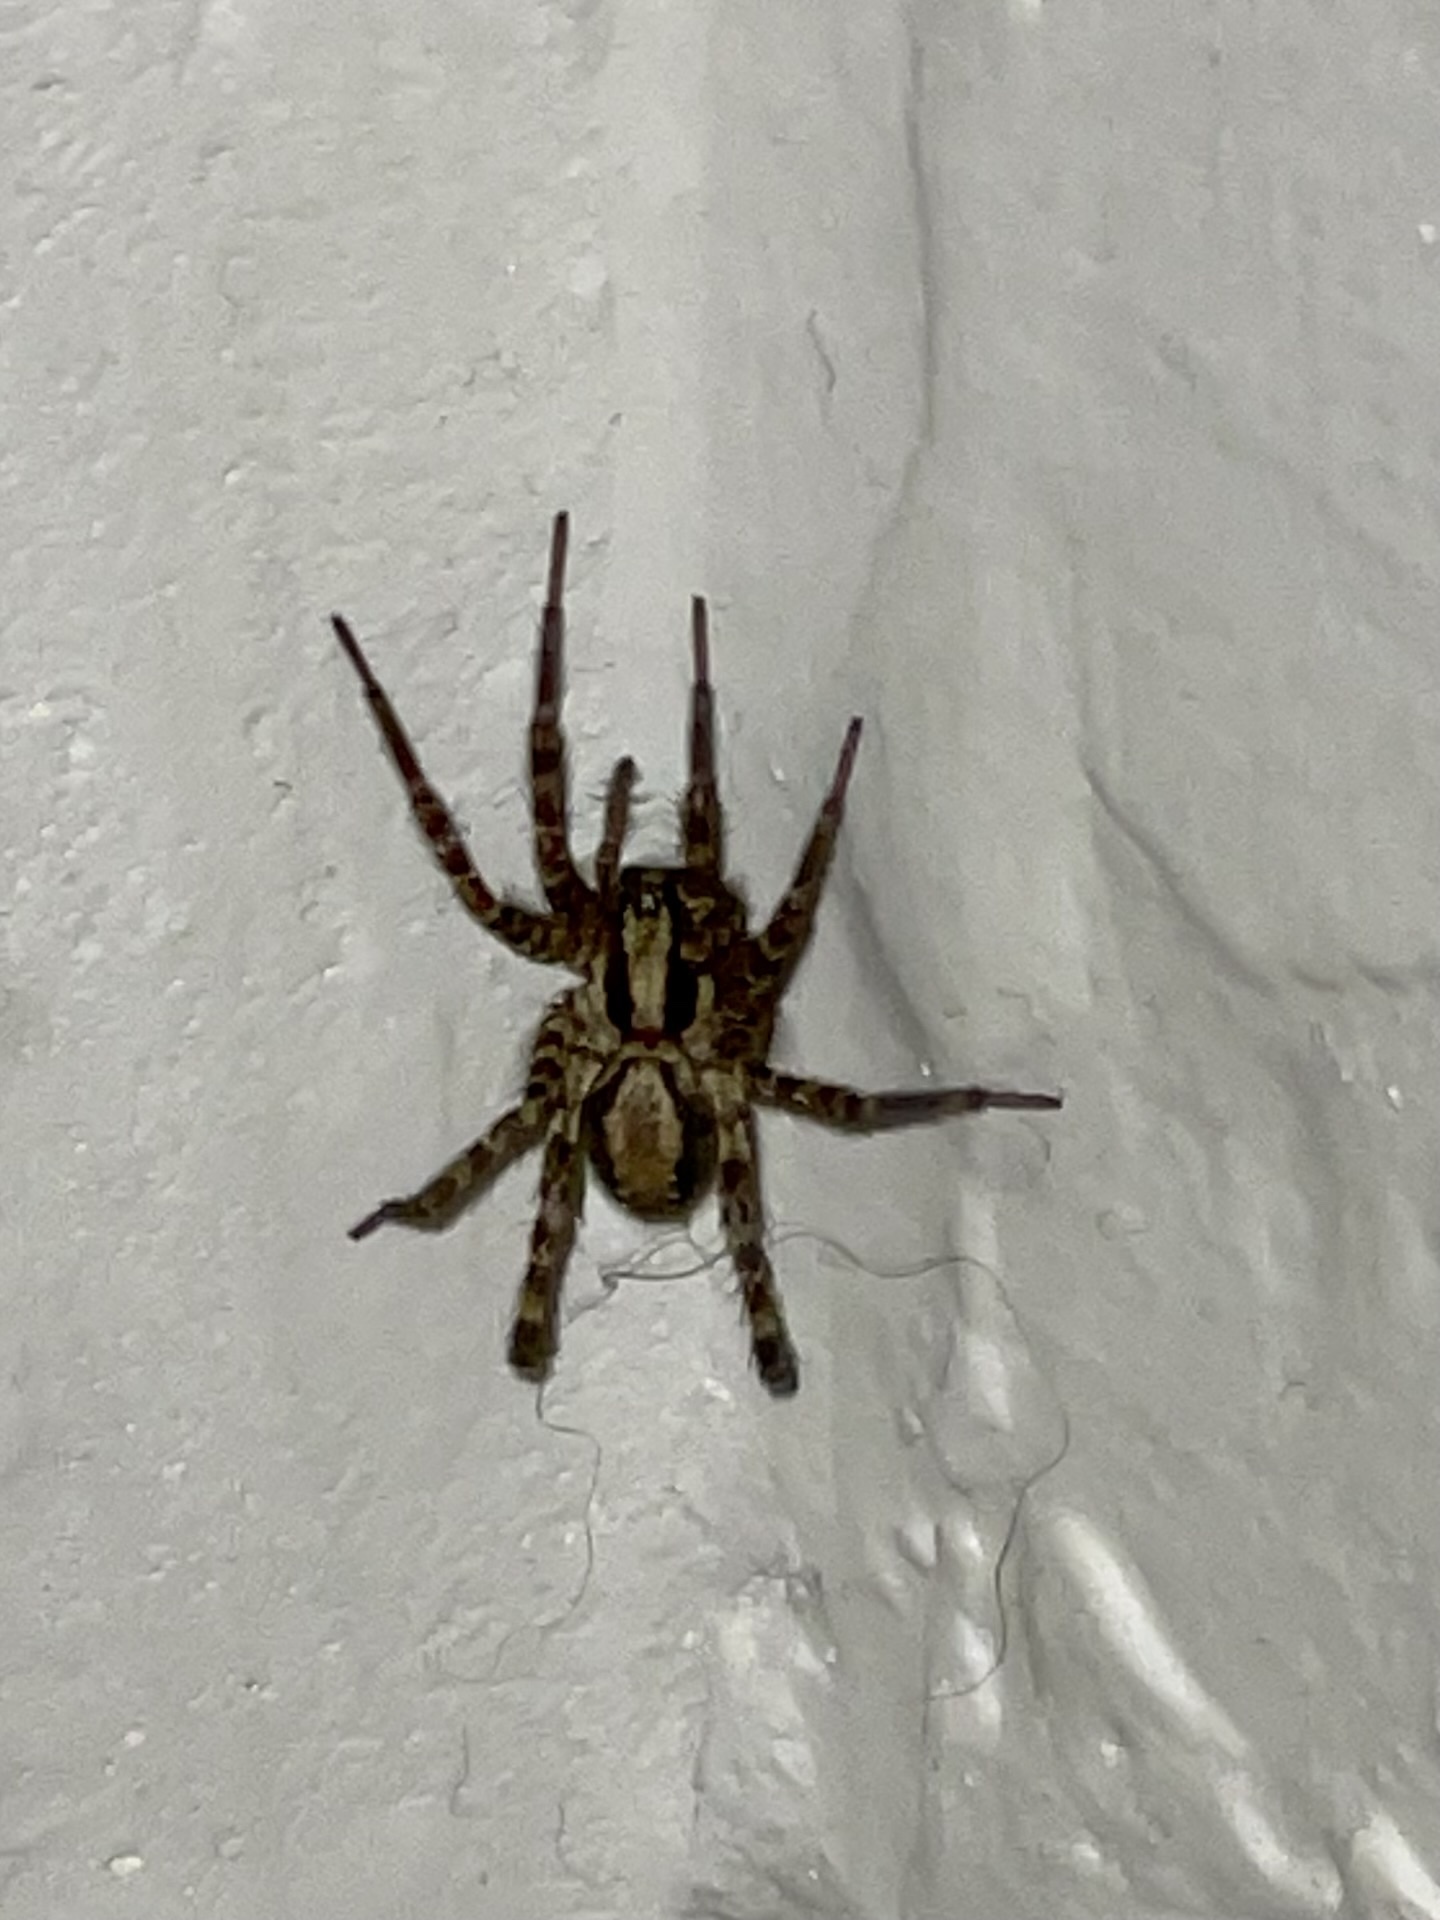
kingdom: Animalia
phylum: Arthropoda
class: Arachnida
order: Araneae
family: Agelenidae
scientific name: Agelenidae
